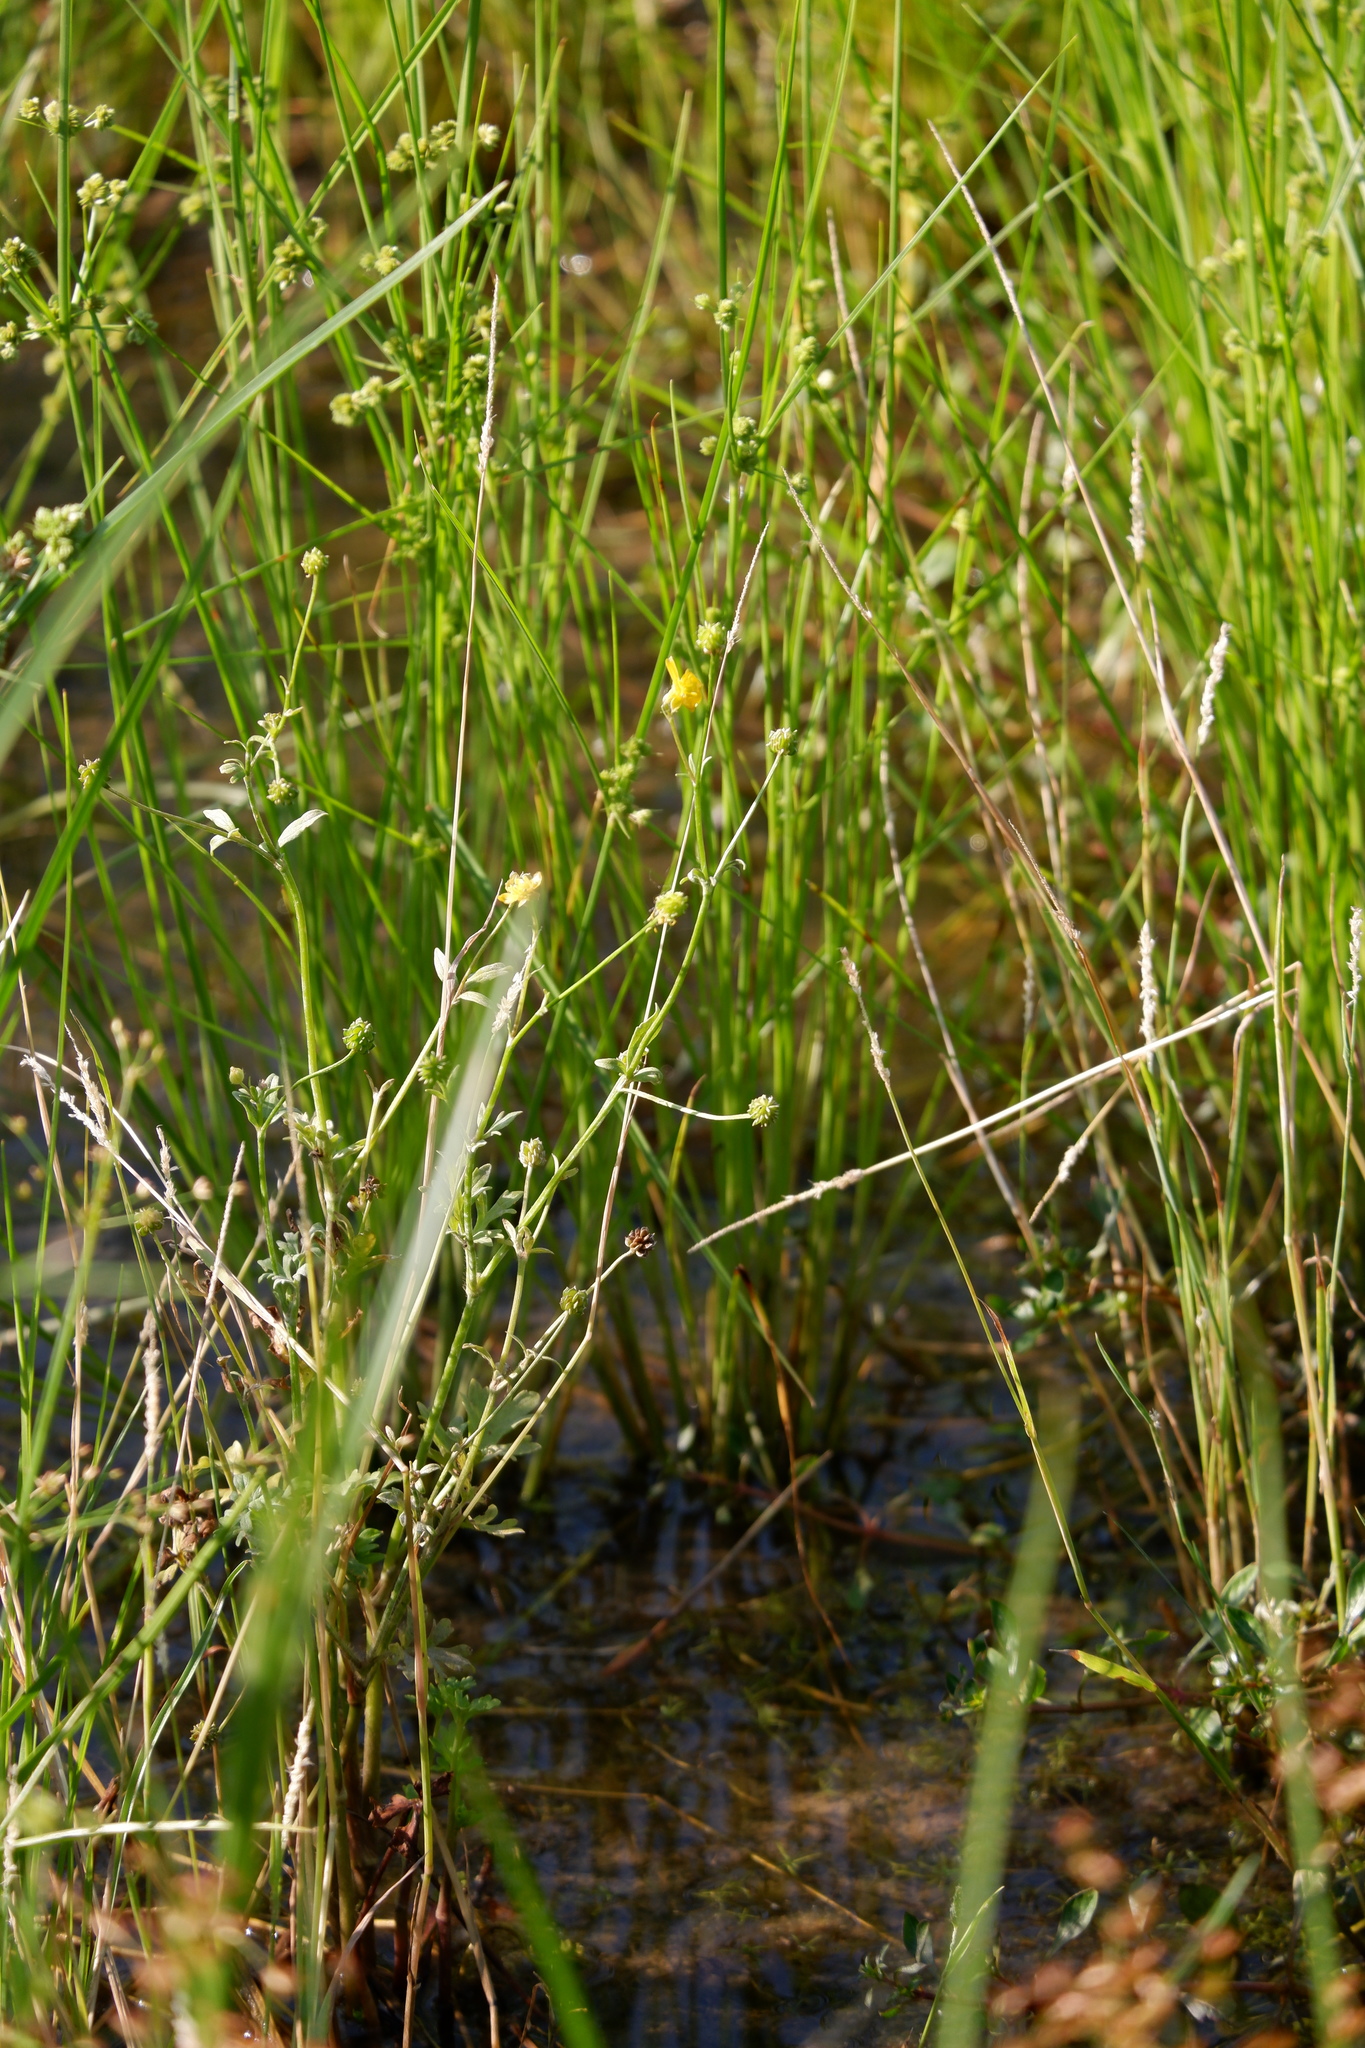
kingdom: Plantae
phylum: Tracheophyta
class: Magnoliopsida
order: Ranunculales
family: Ranunculaceae
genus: Ranunculus
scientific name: Ranunculus hispidus
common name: Bristly buttercup
